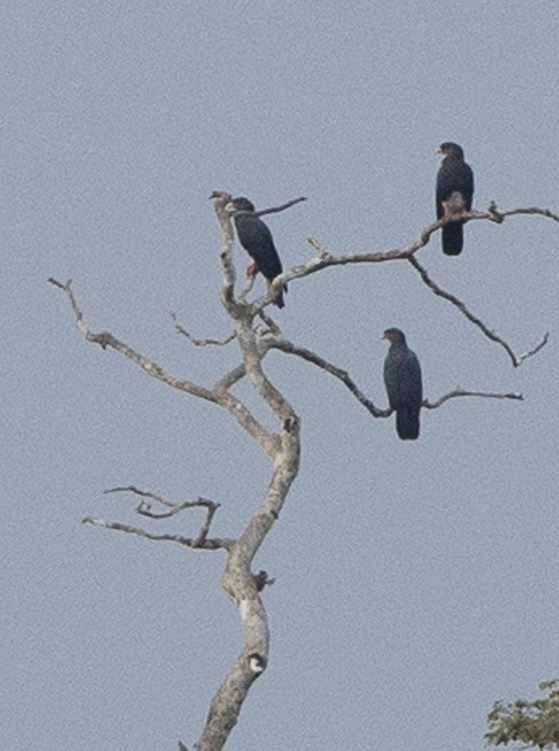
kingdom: Animalia
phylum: Chordata
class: Aves
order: Falconiformes
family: Falconidae
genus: Ibycter
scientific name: Ibycter americanus
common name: Red-throated caracara
